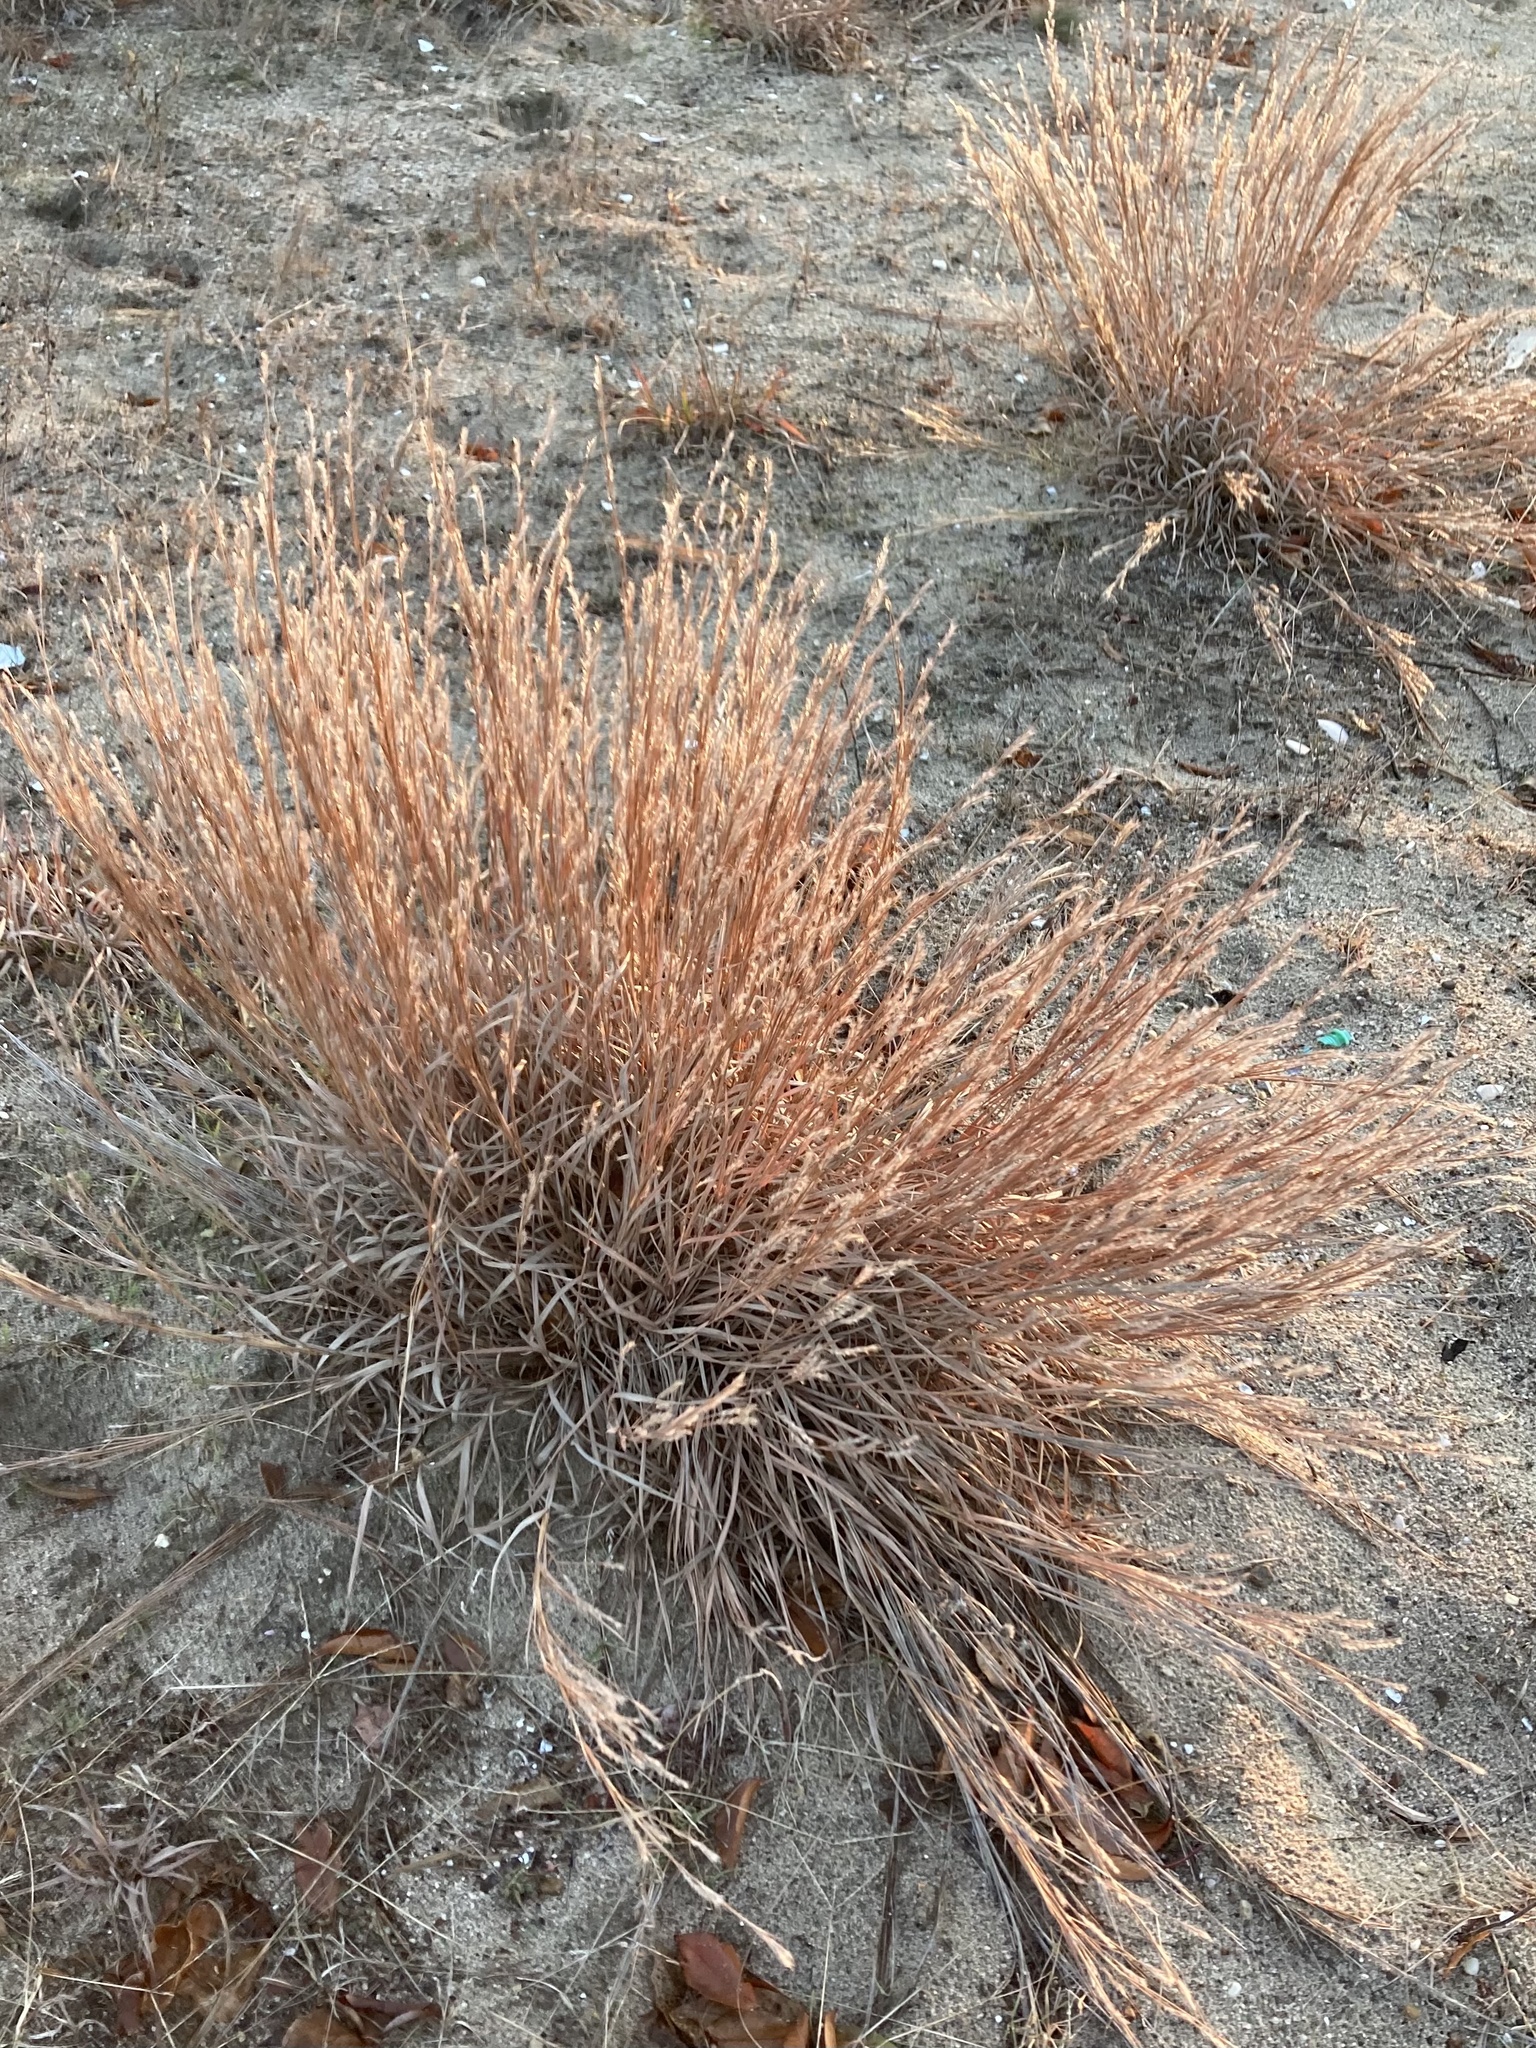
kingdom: Plantae
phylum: Tracheophyta
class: Liliopsida
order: Poales
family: Poaceae
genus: Schizachyrium
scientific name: Schizachyrium scoparium
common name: Little bluestem
